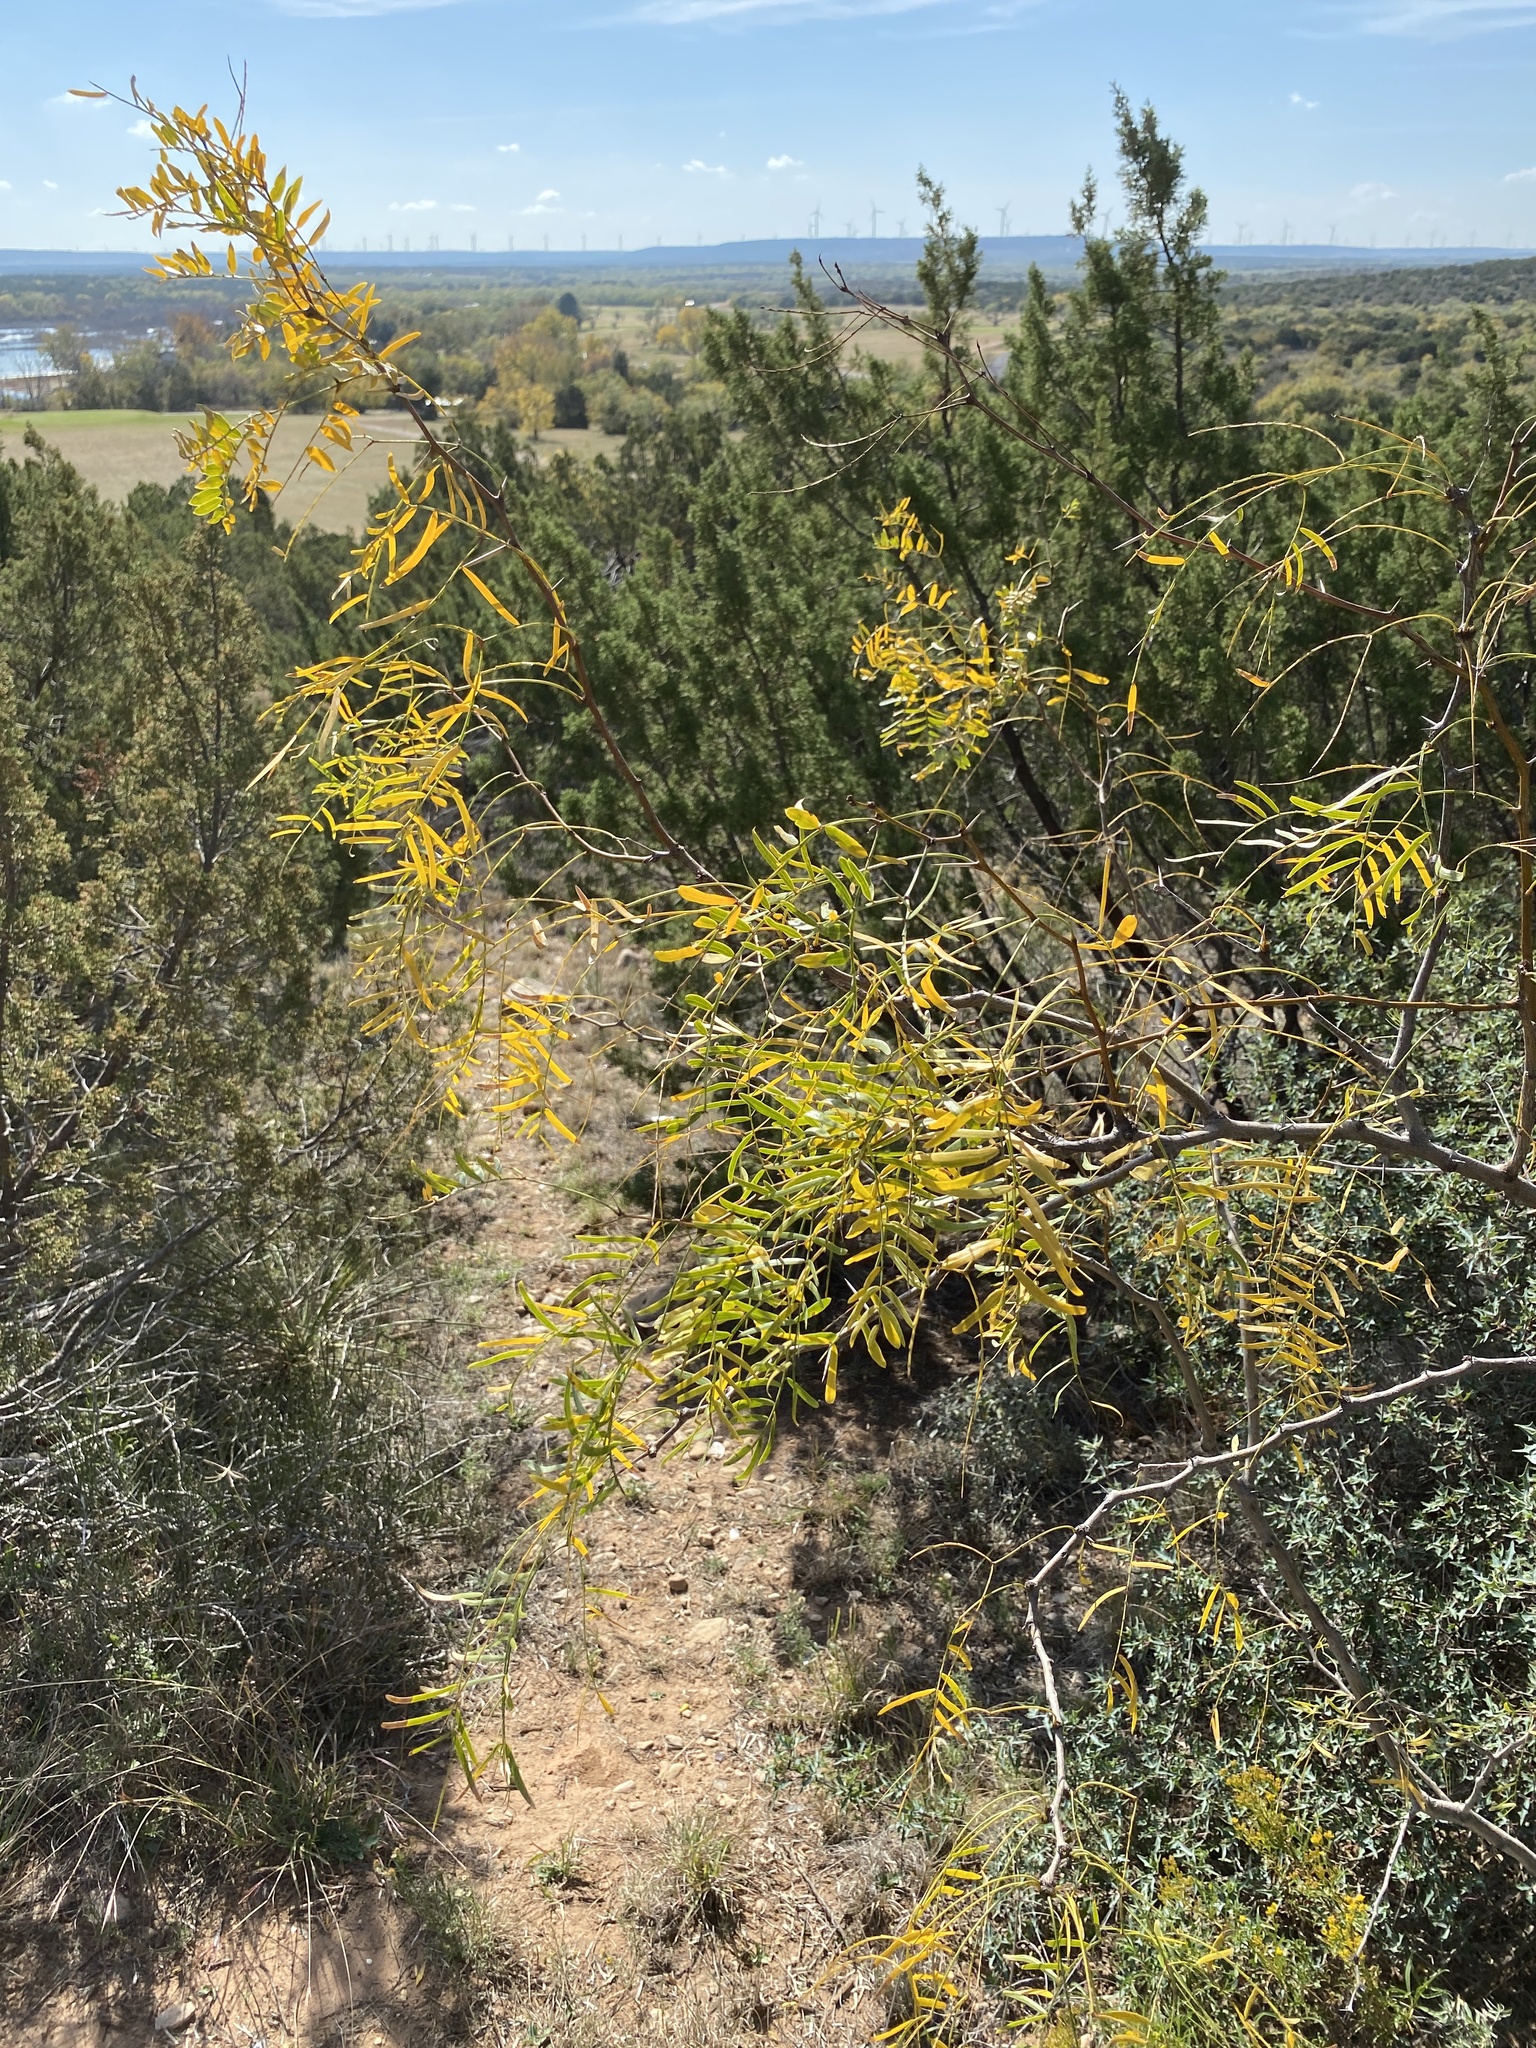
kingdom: Plantae
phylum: Tracheophyta
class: Magnoliopsida
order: Fabales
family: Fabaceae
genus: Prosopis
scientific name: Prosopis glandulosa
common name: Honey mesquite
